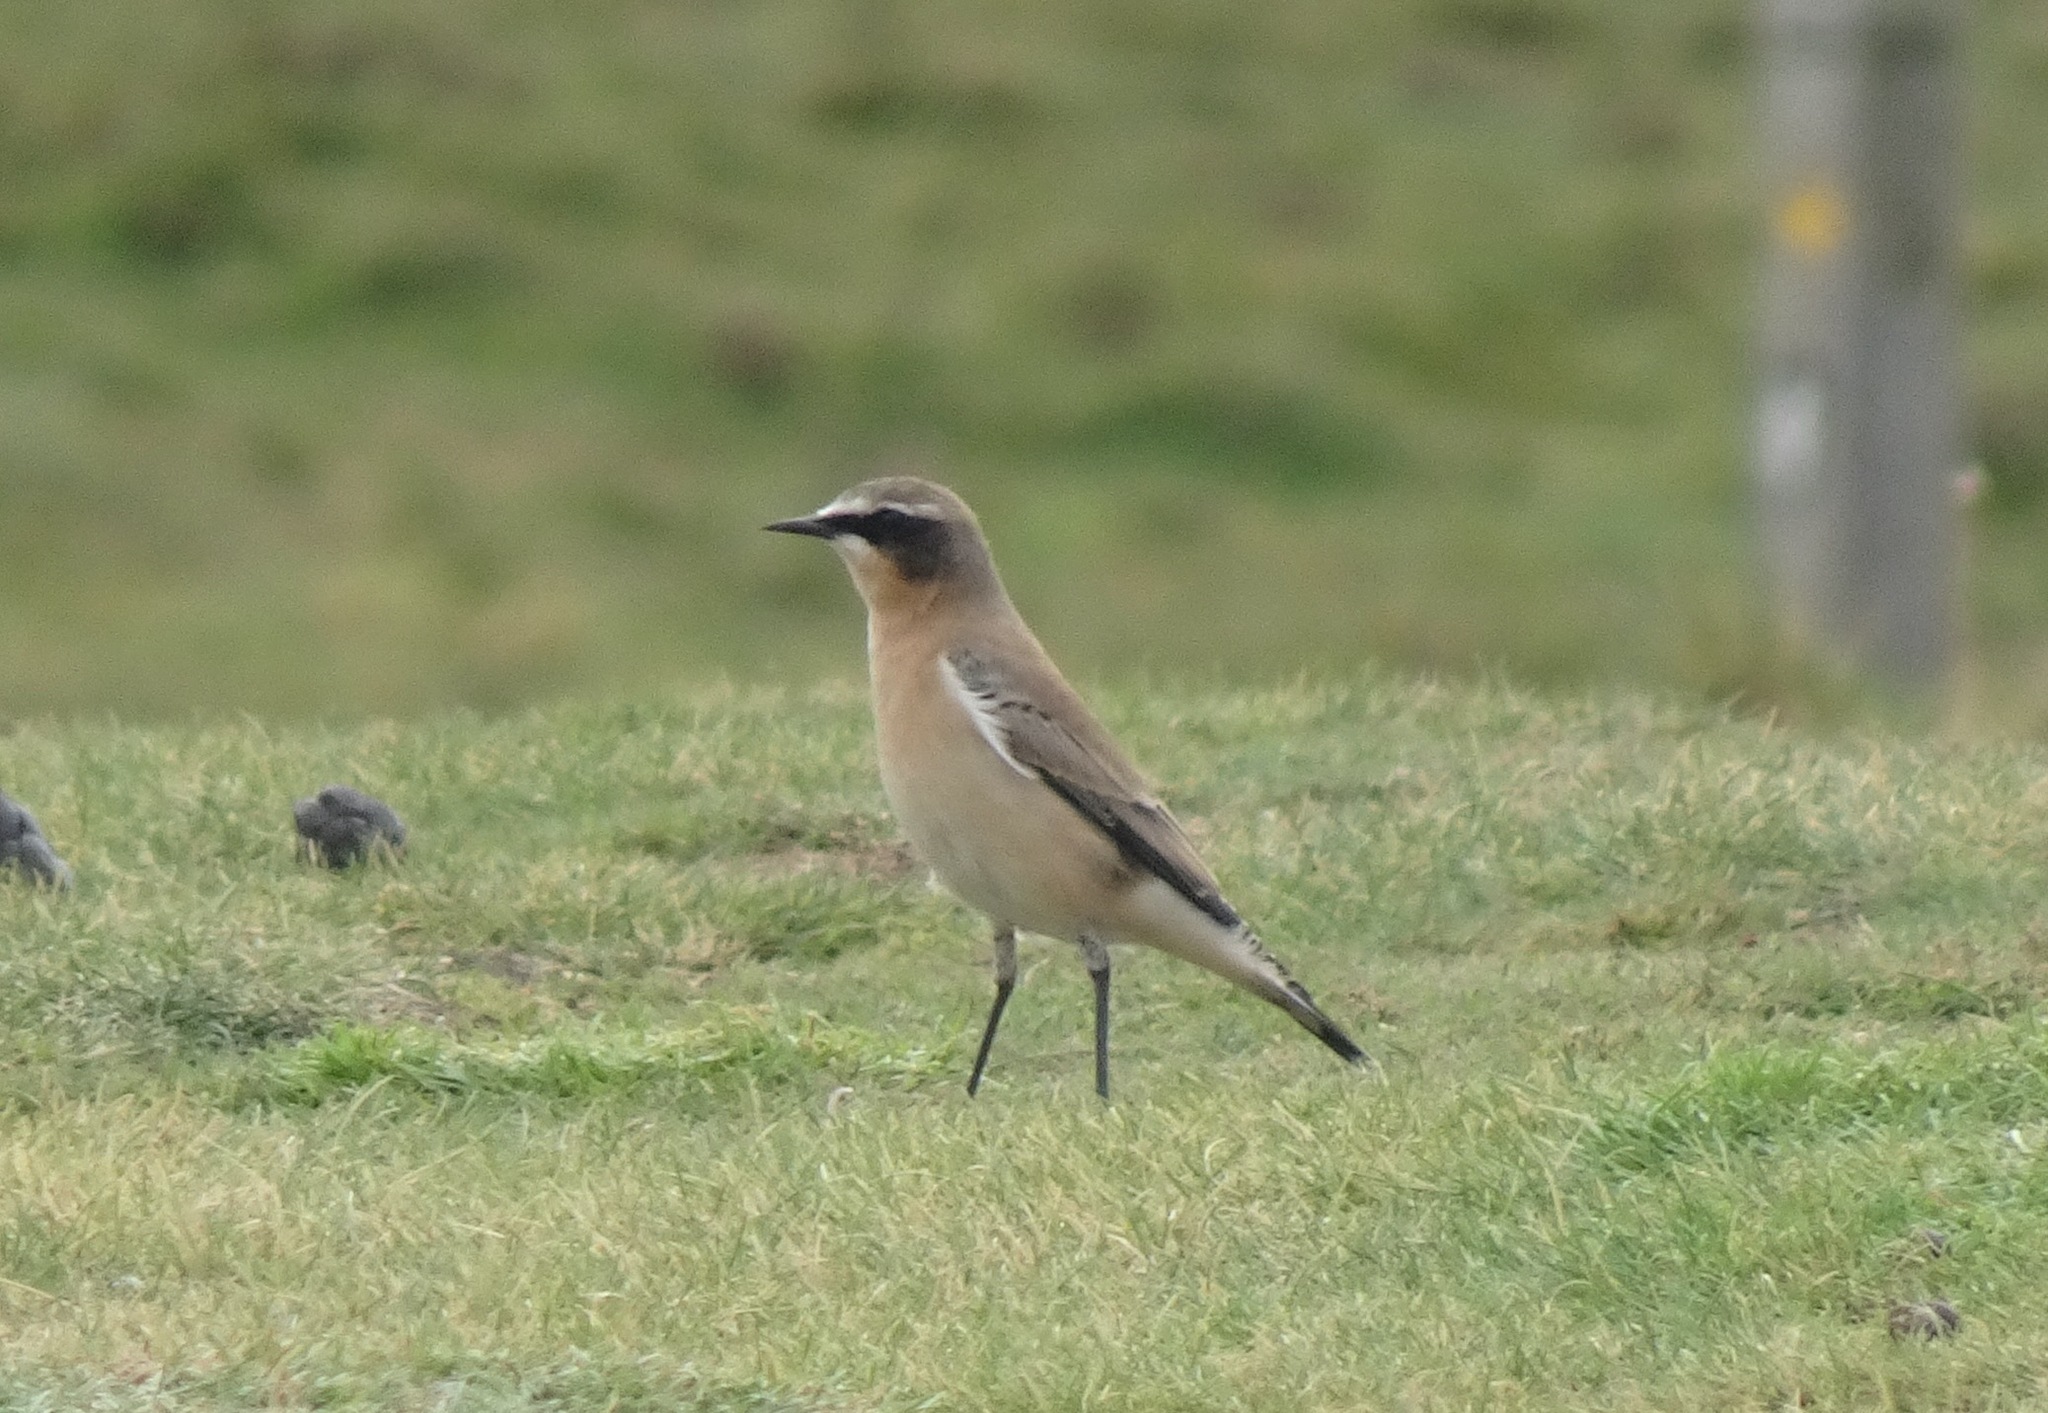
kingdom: Animalia
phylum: Chordata
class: Aves
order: Passeriformes
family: Muscicapidae
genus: Oenanthe
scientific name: Oenanthe oenanthe
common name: Northern wheatear
